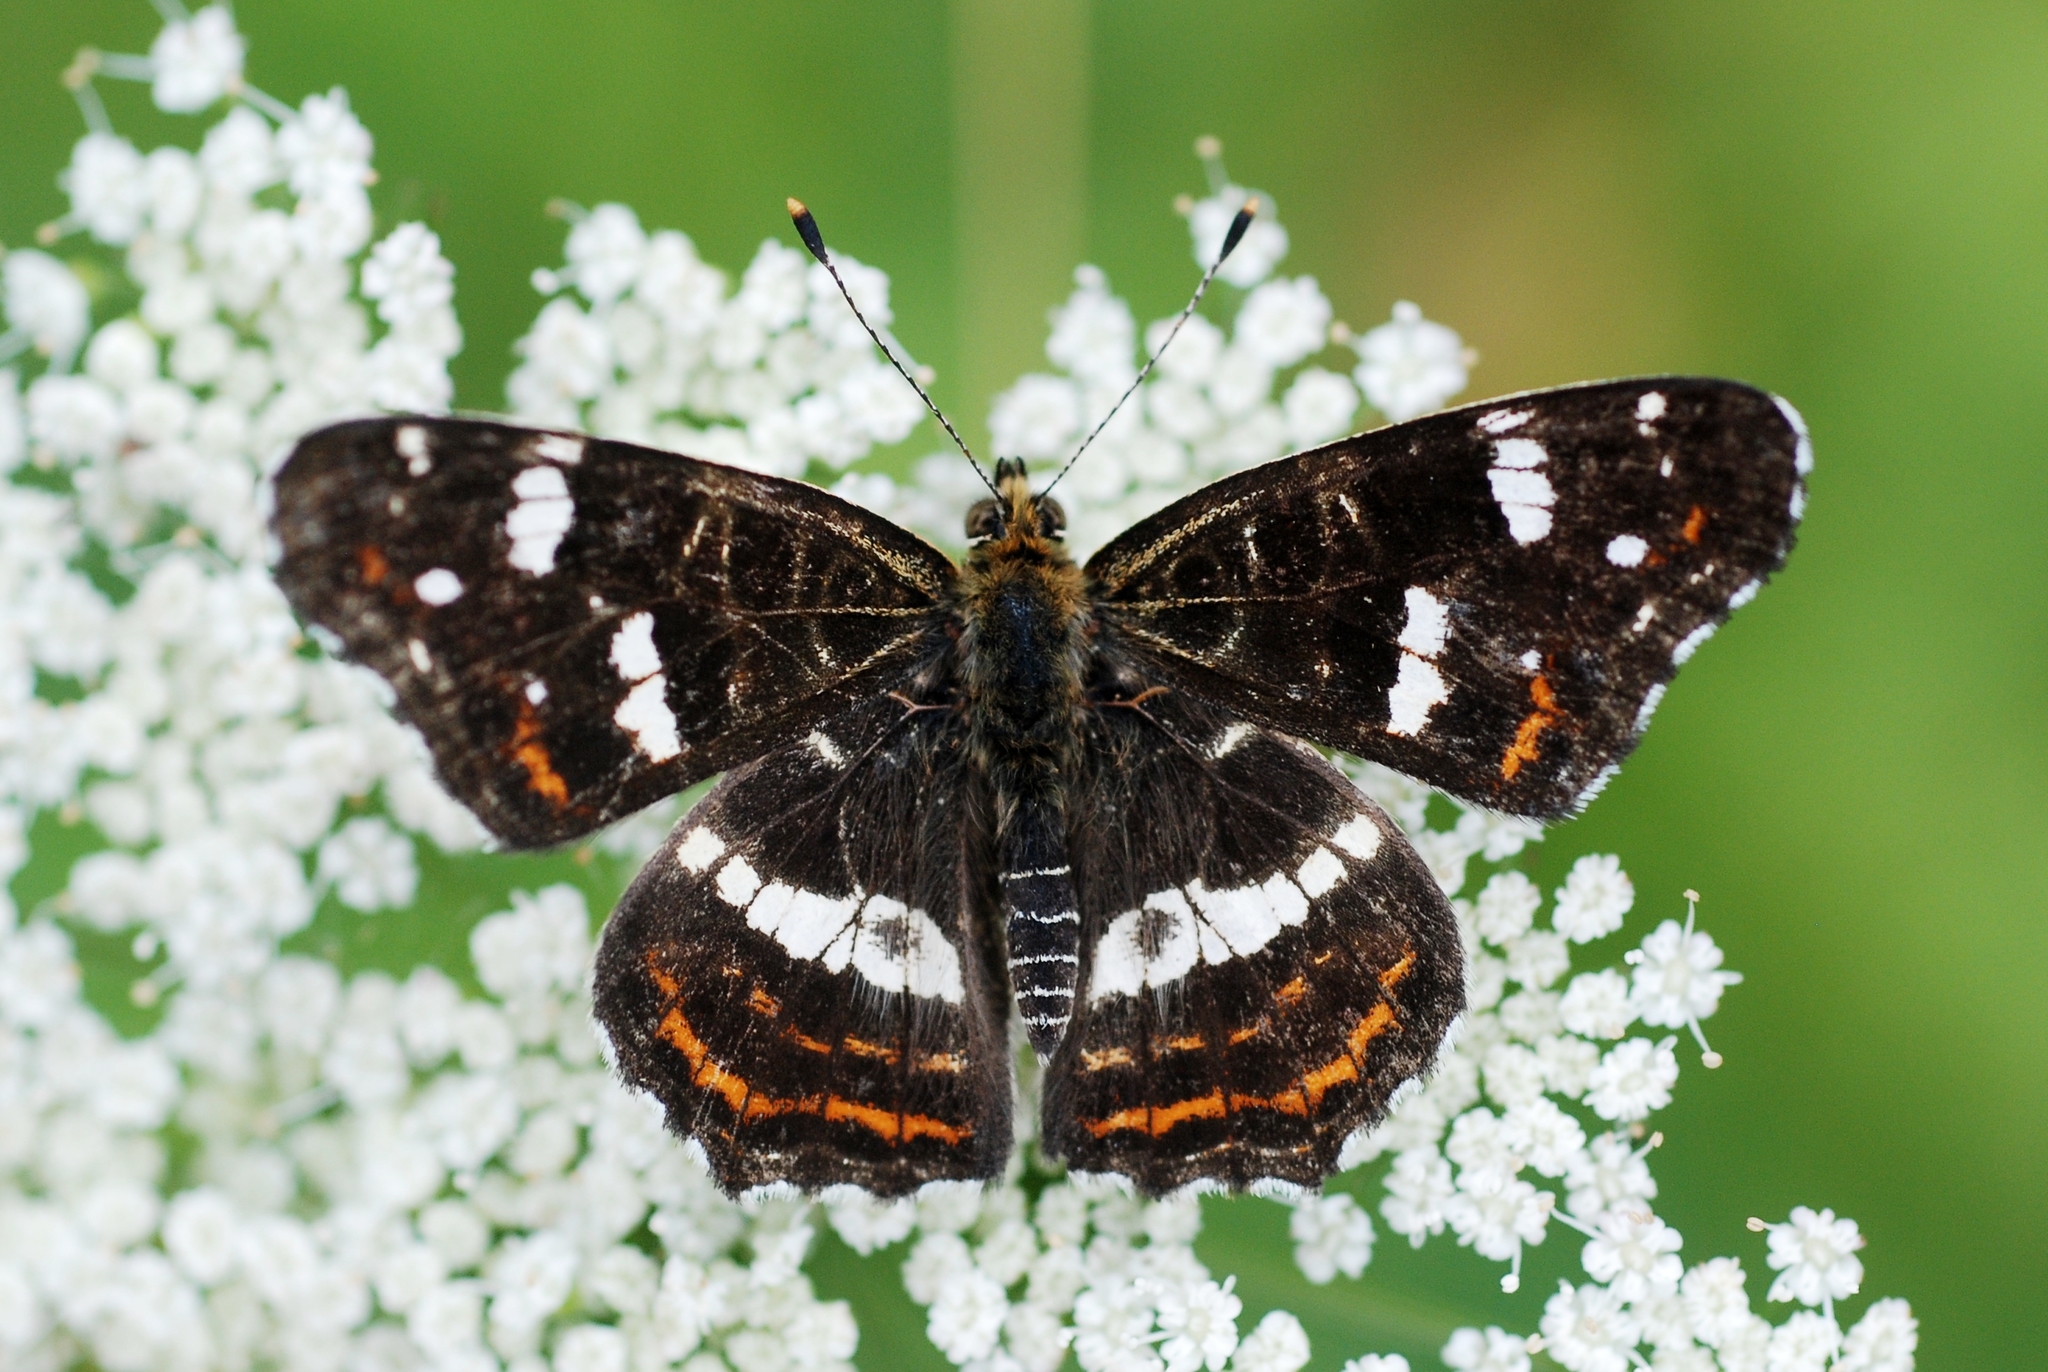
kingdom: Animalia
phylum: Arthropoda
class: Insecta
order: Lepidoptera
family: Nymphalidae
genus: Araschnia
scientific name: Araschnia levana
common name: Map butterfly
